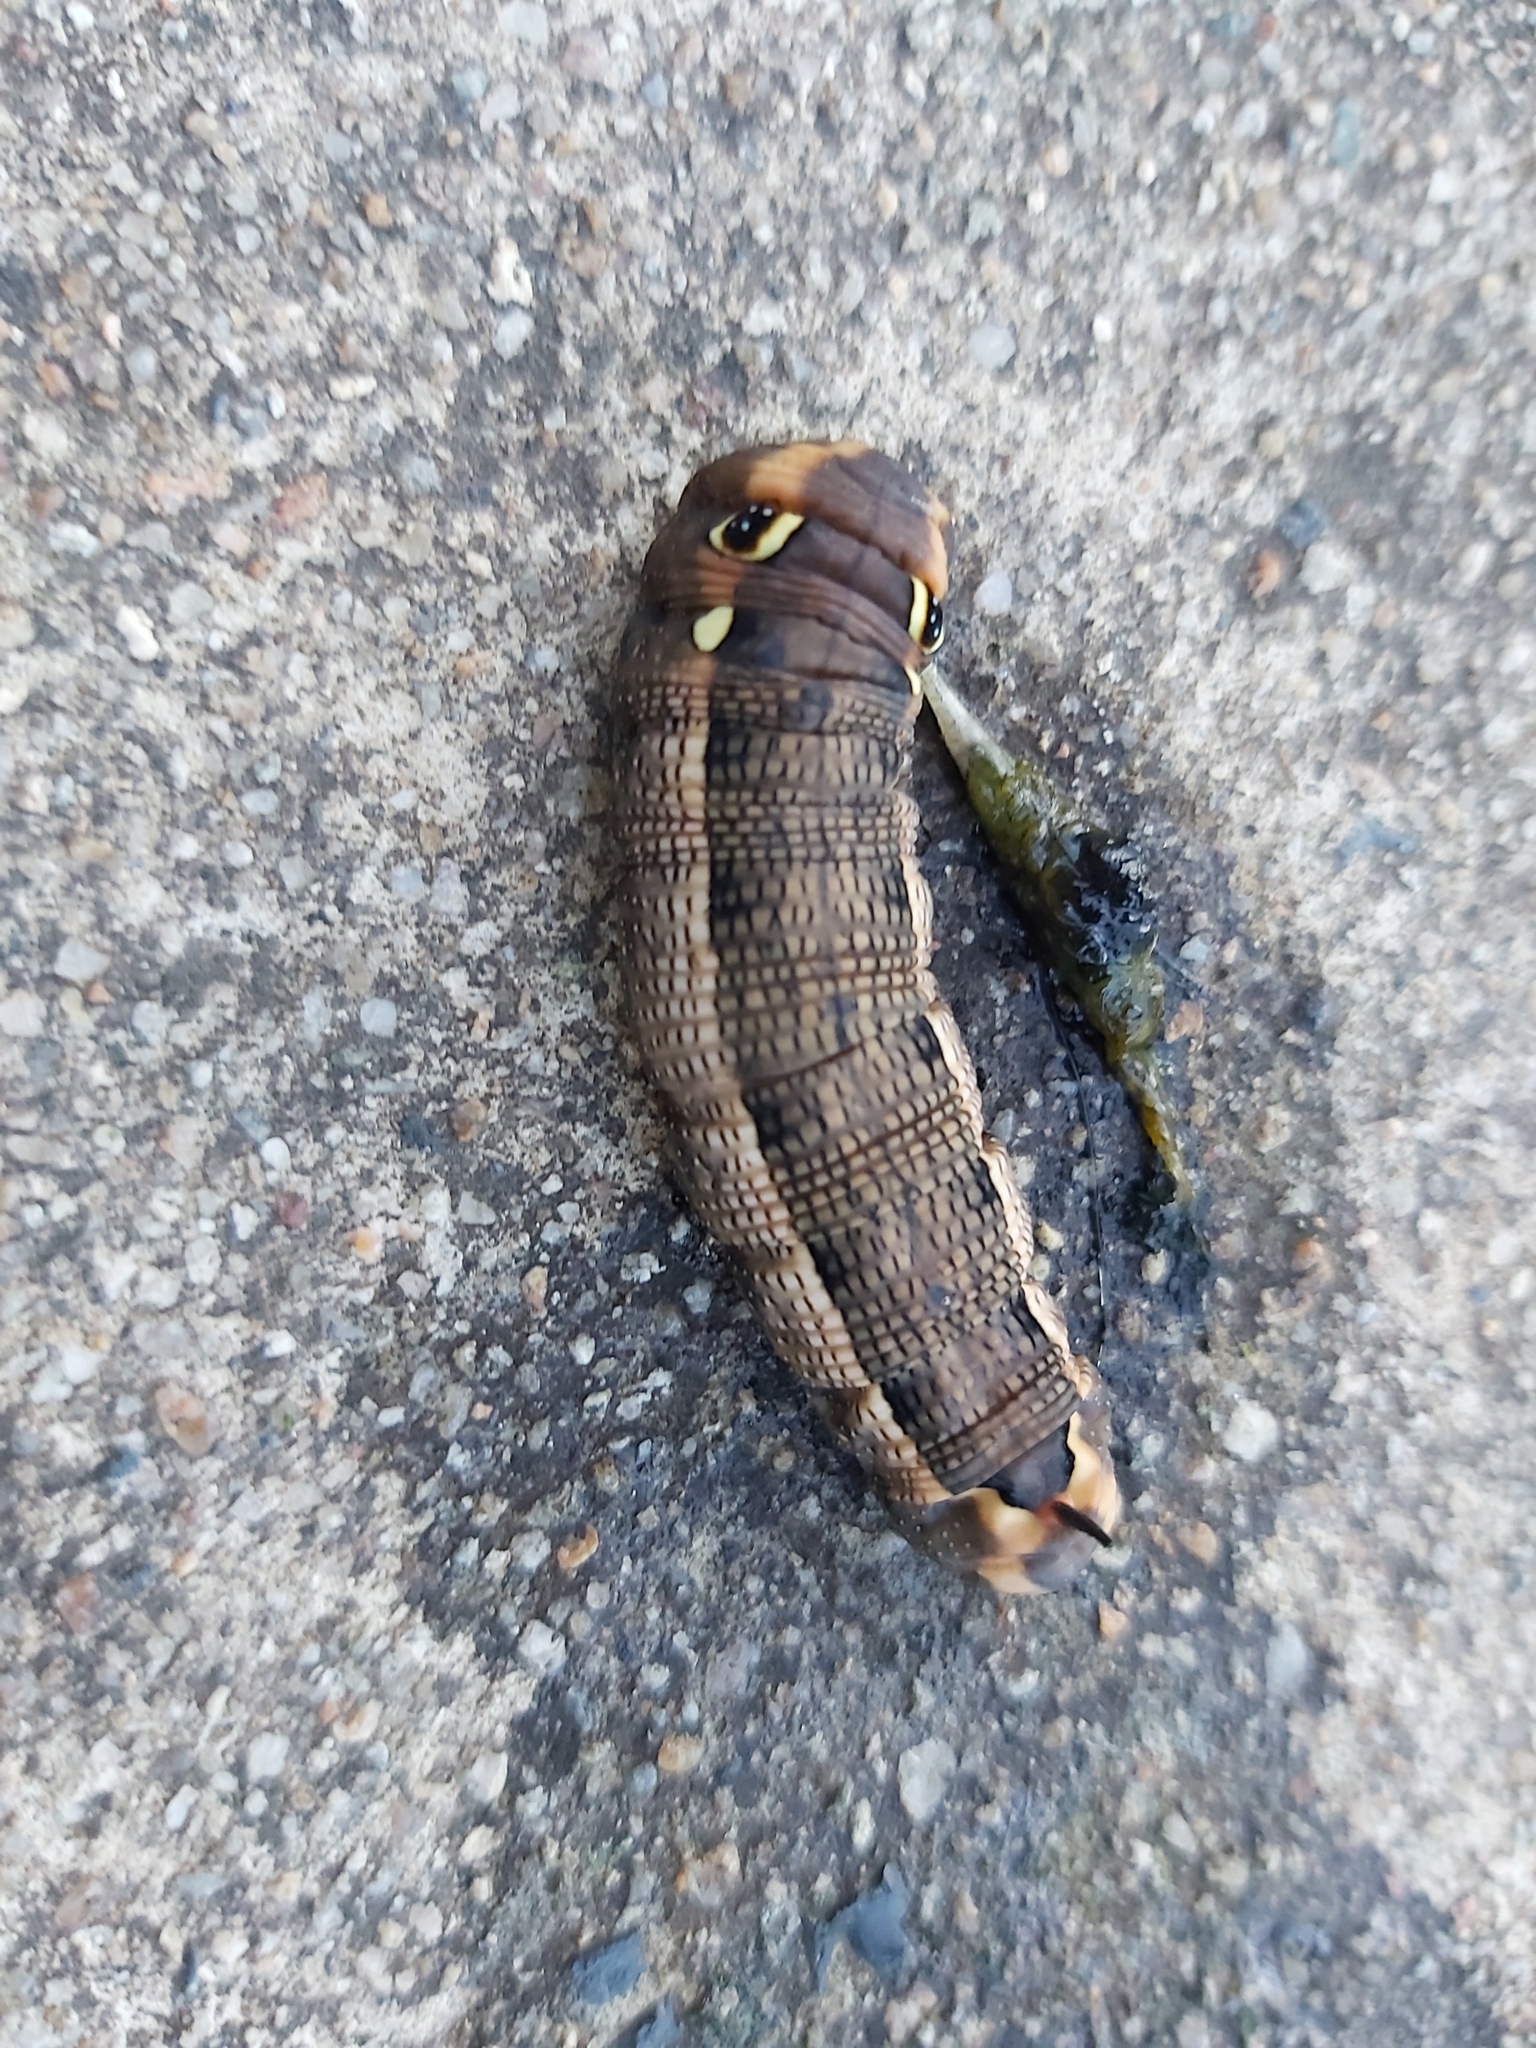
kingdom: Animalia
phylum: Arthropoda
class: Insecta
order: Lepidoptera
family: Sphingidae
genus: Hippotion
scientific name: Hippotion celerio
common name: Silver-striped hawk-moth
